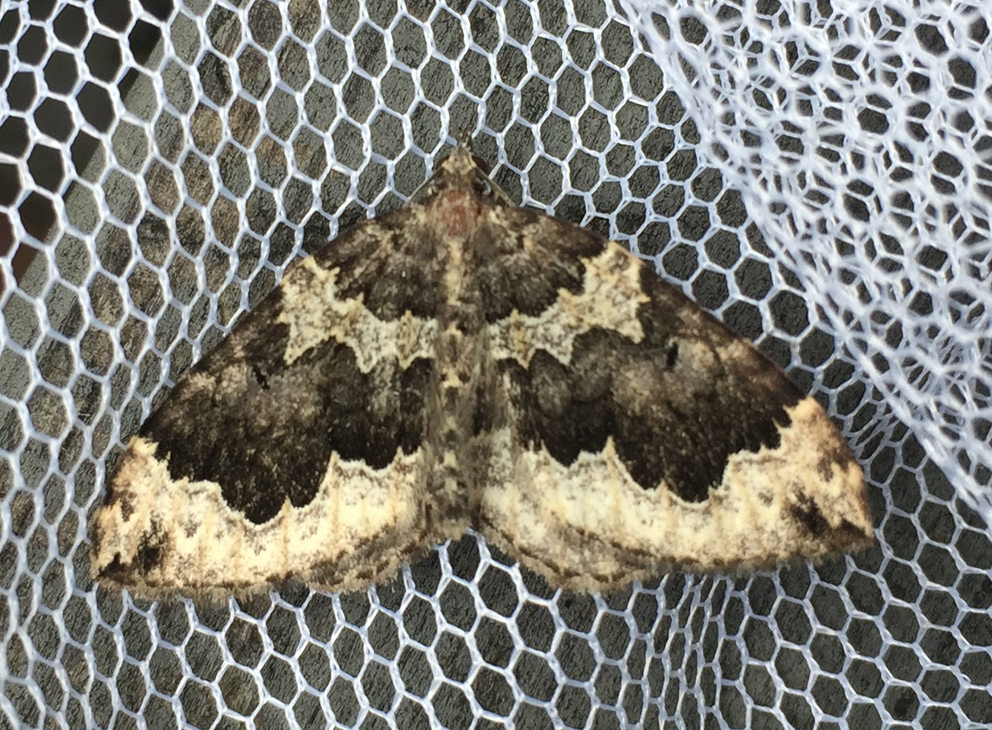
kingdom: Animalia
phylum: Arthropoda
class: Insecta
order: Lepidoptera
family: Geometridae
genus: Eustroma
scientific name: Eustroma semiatrata
